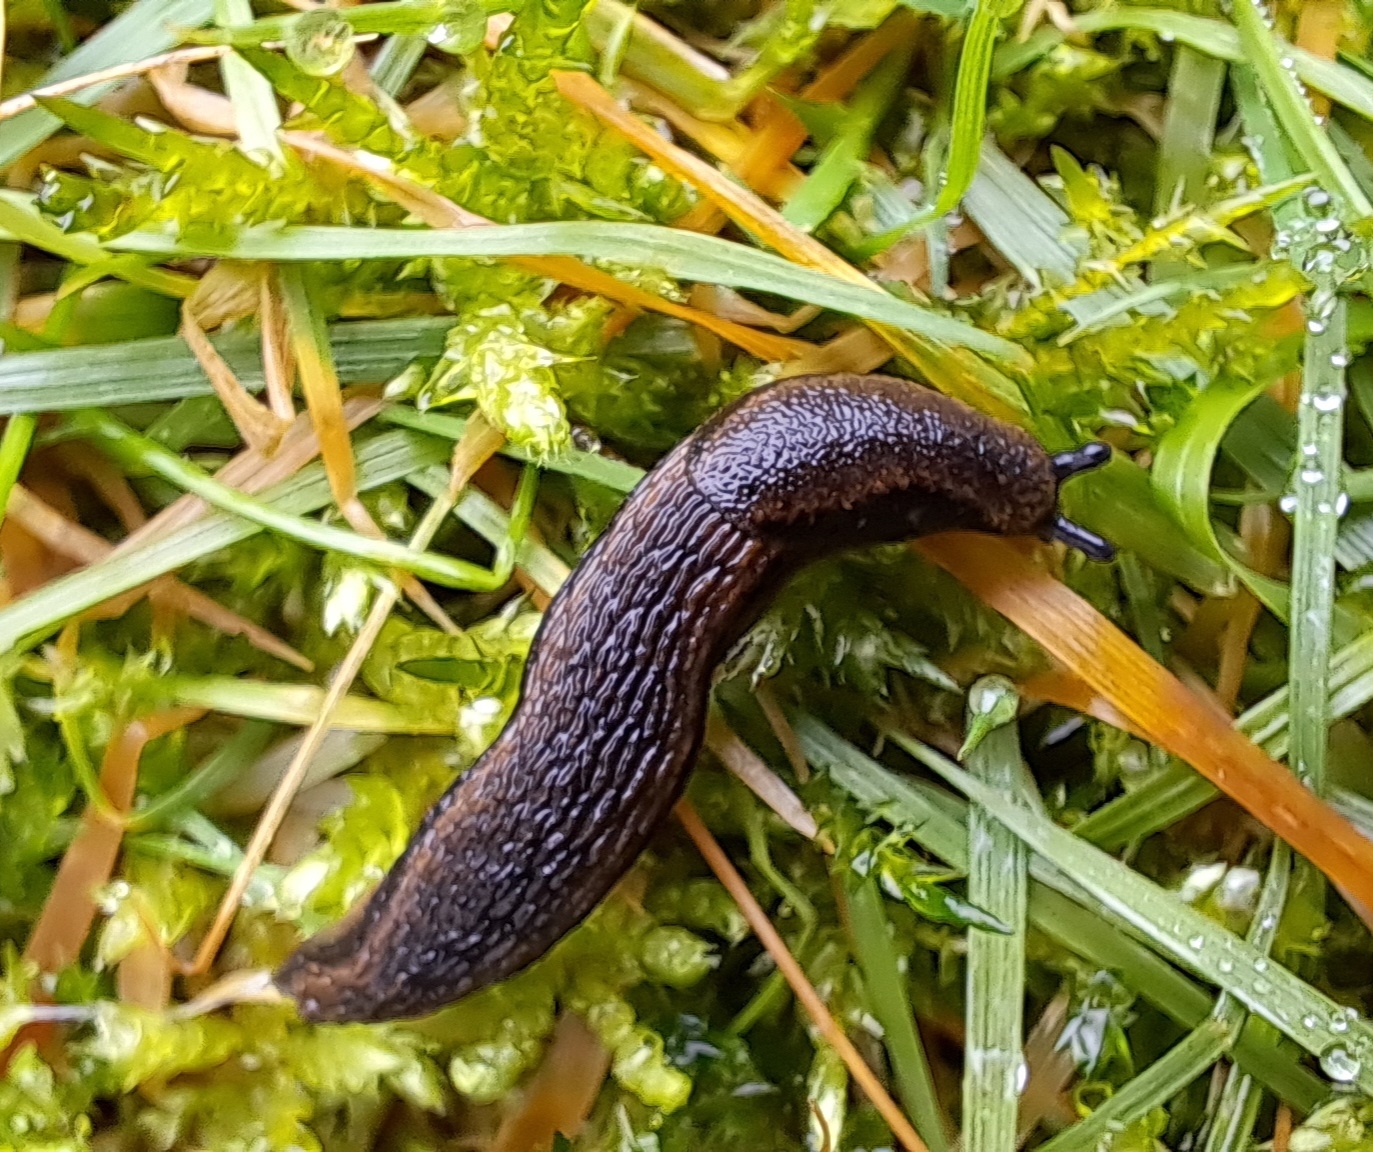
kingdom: Animalia
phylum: Mollusca
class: Gastropoda
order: Stylommatophora
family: Arionidae
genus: Arion
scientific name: Arion distinctus
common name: Darkface arion
